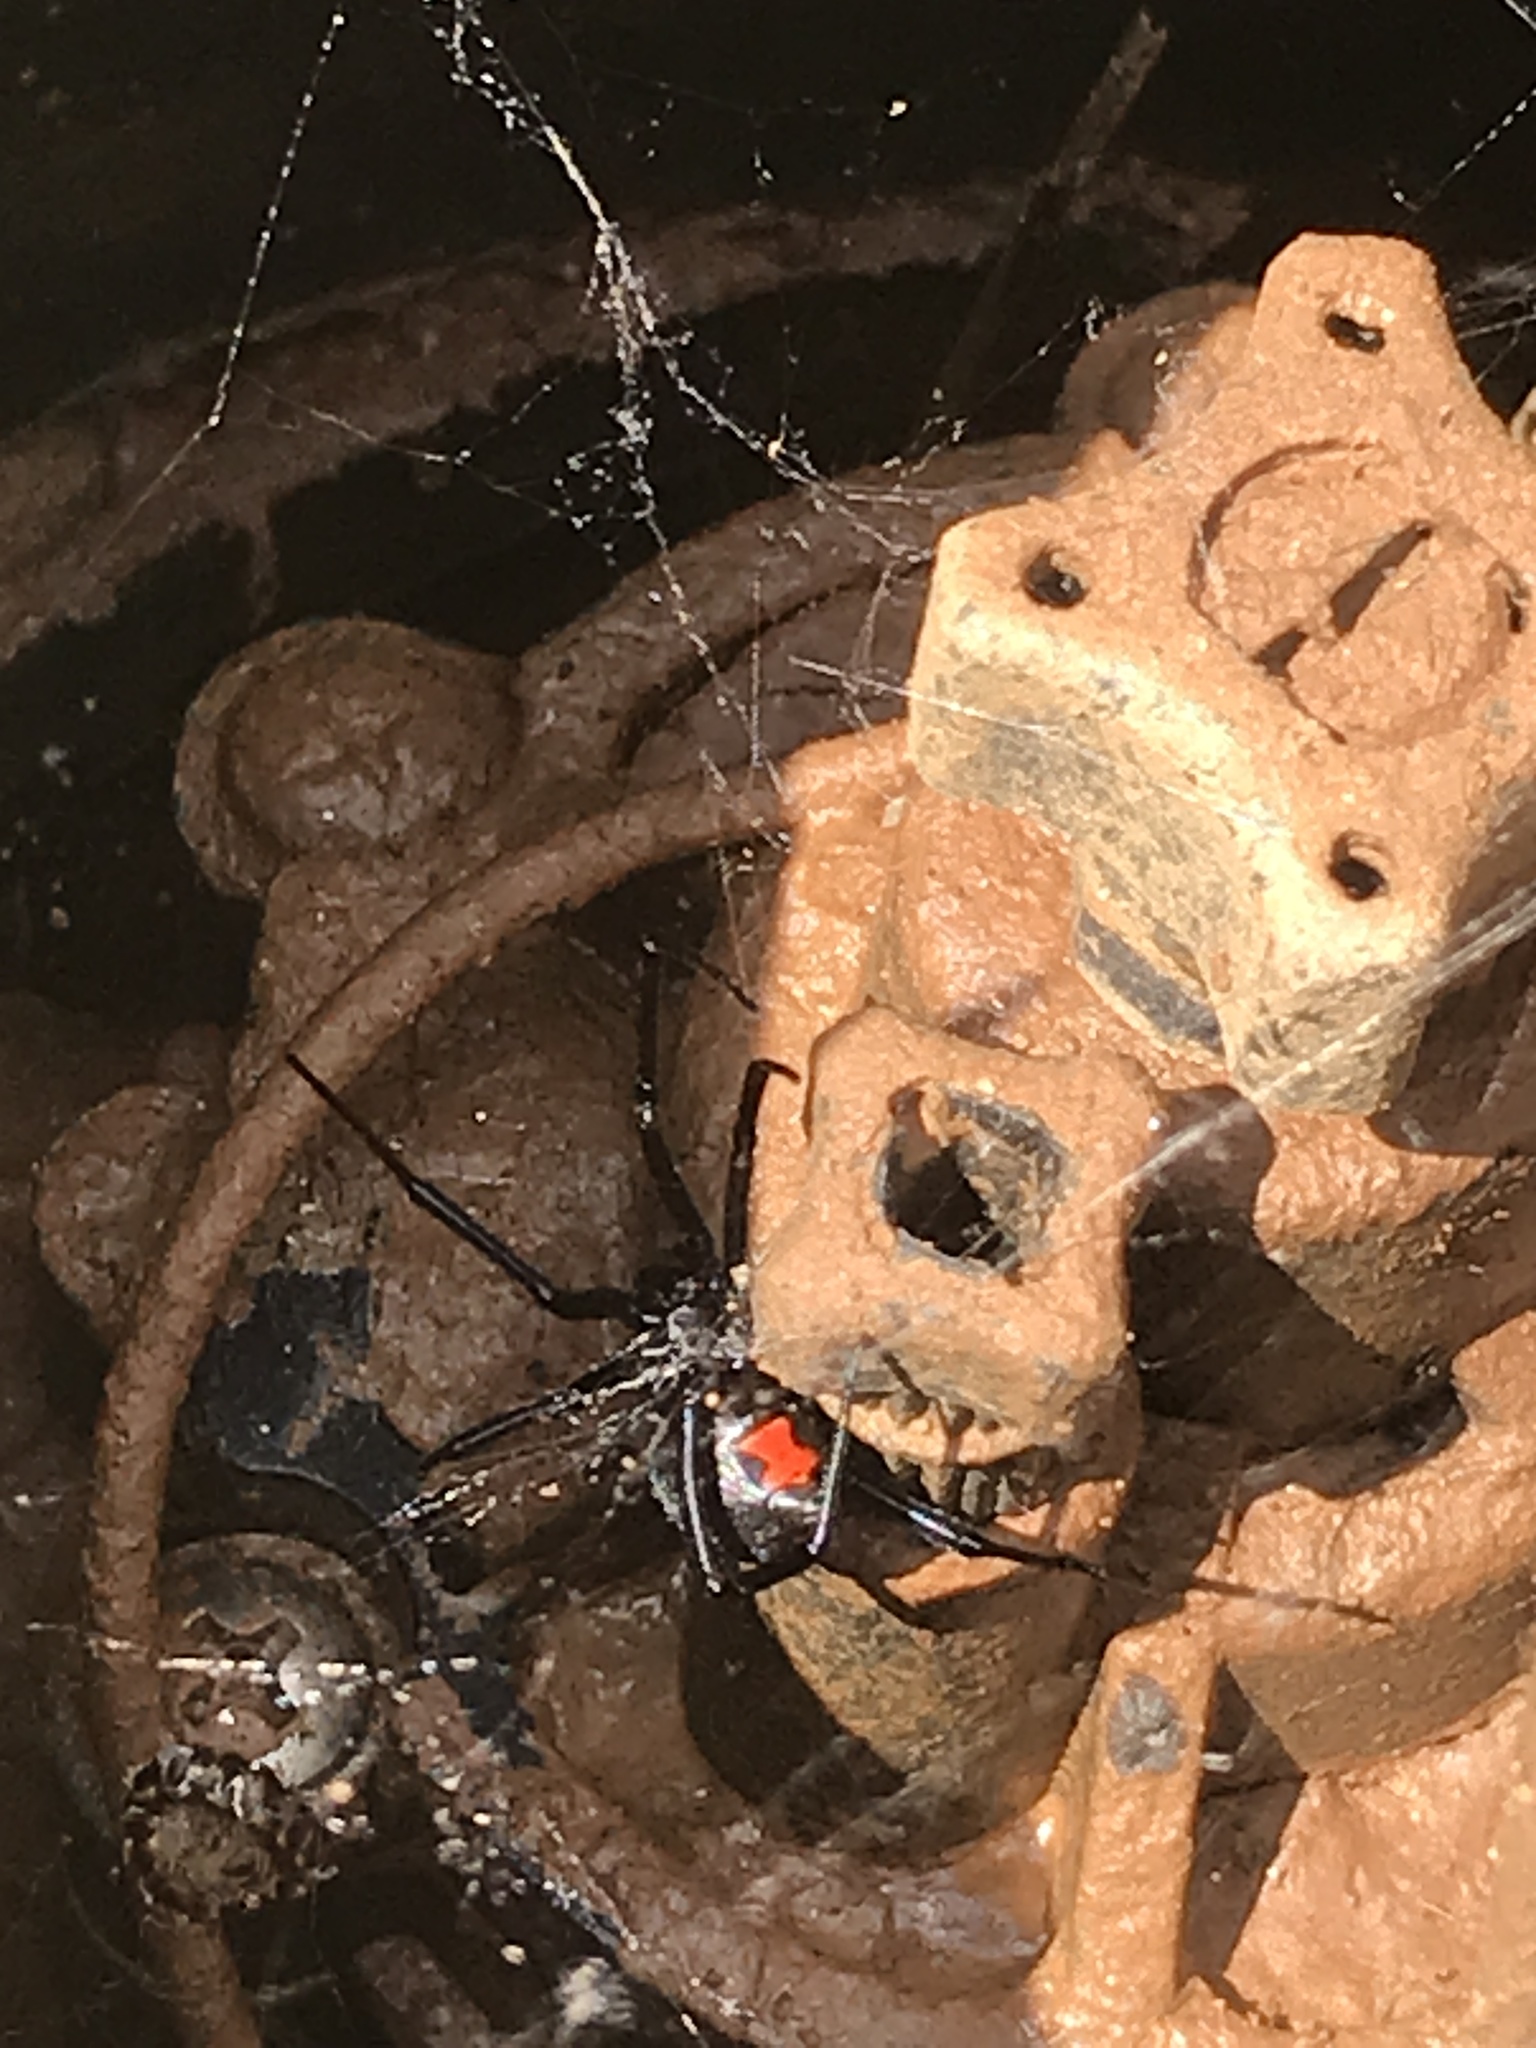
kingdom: Animalia
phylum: Arthropoda
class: Arachnida
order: Araneae
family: Theridiidae
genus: Latrodectus
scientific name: Latrodectus mactans
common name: Cobweb spiders
